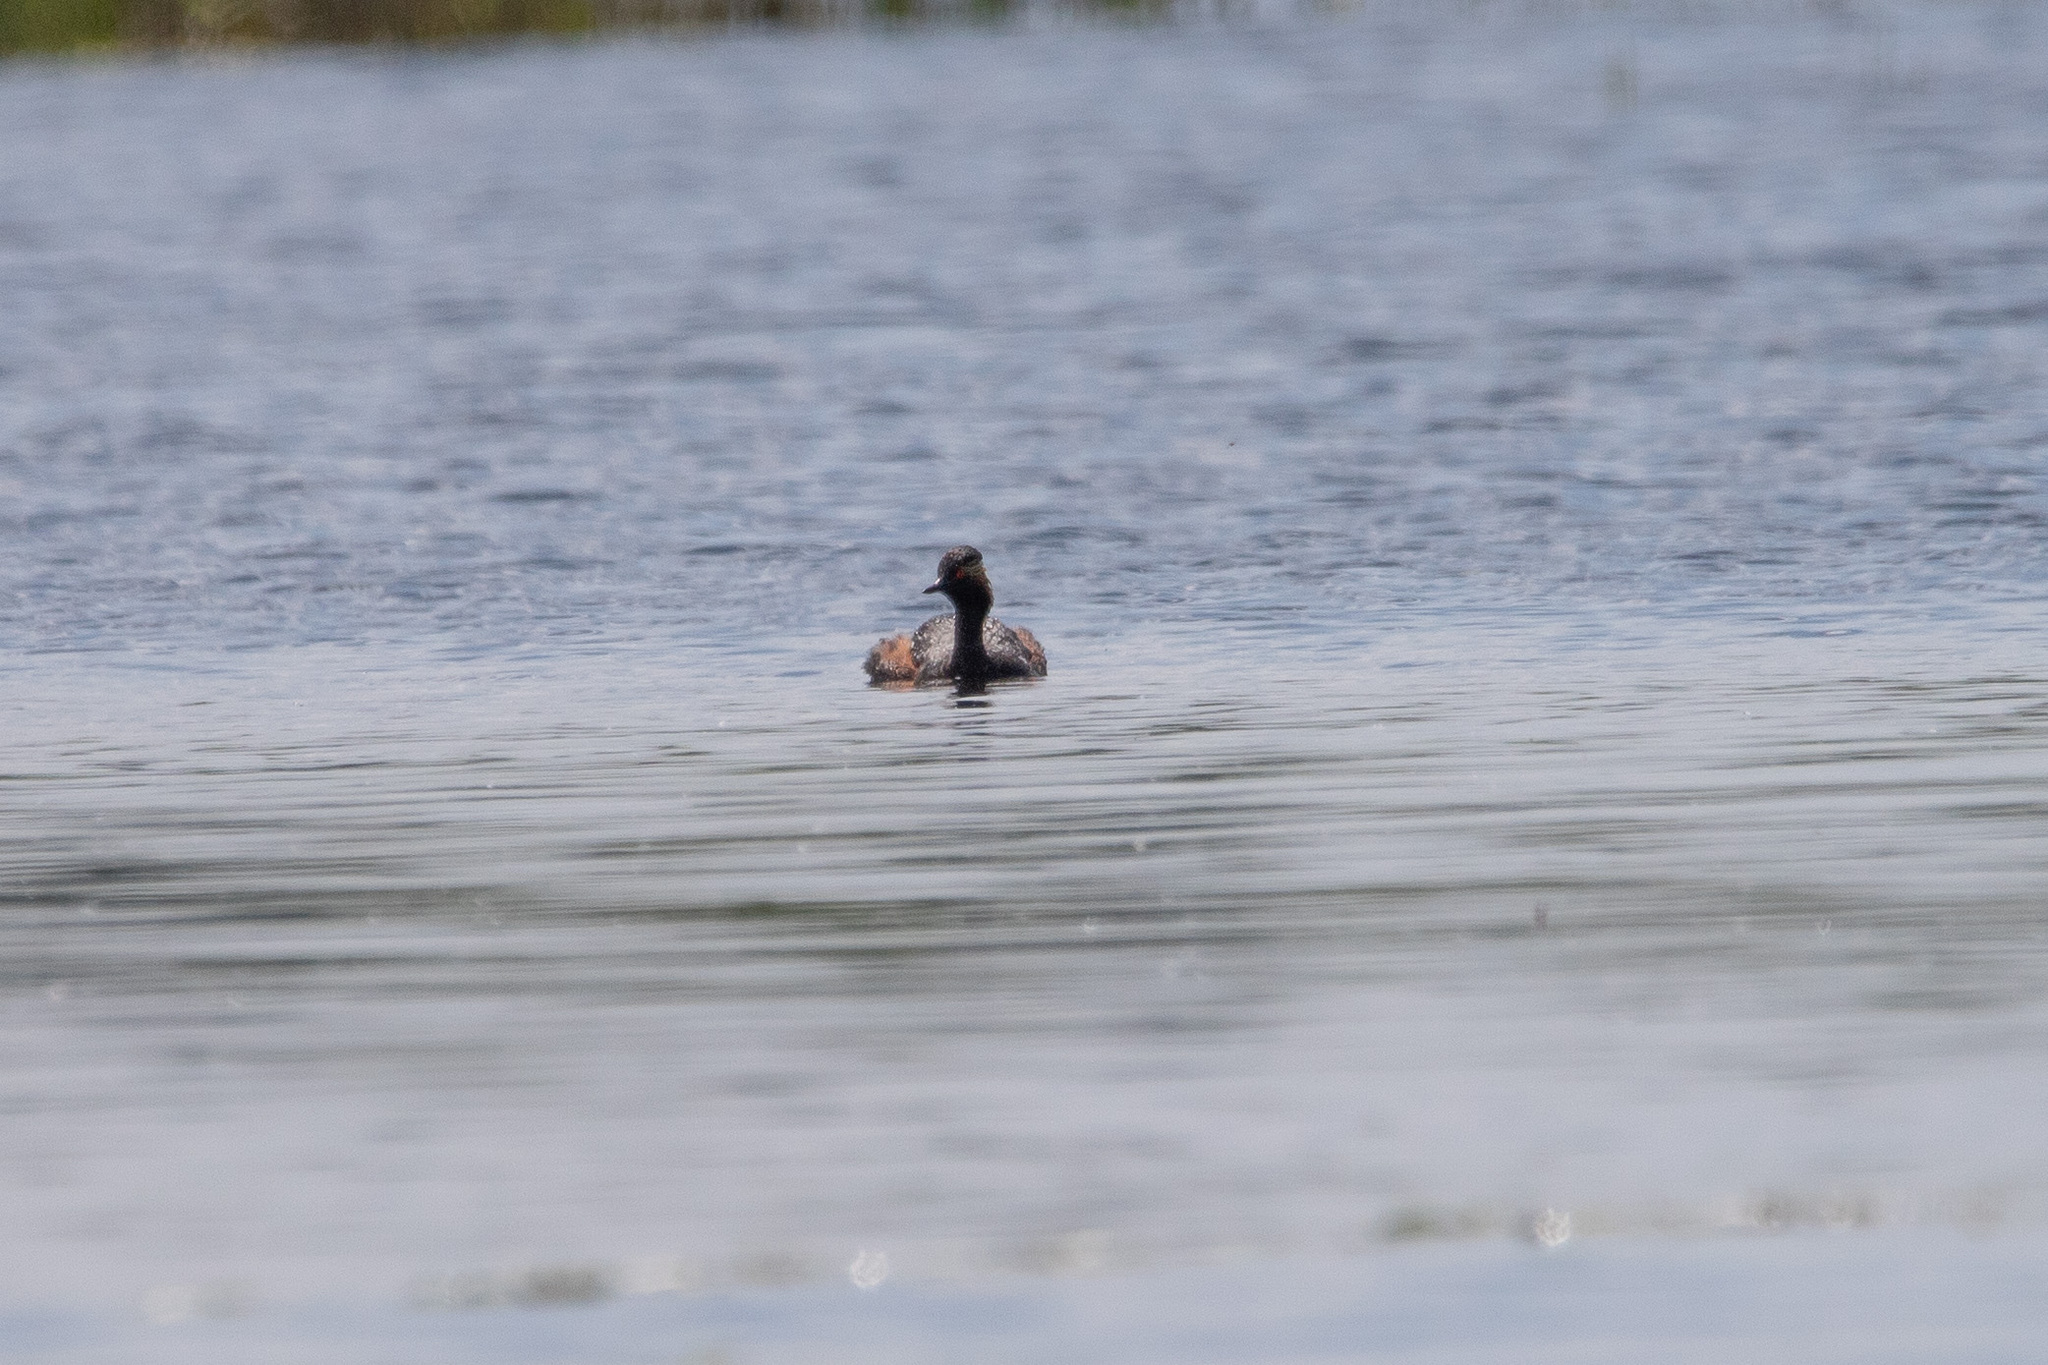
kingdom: Animalia
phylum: Chordata
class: Aves
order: Podicipediformes
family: Podicipedidae
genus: Podiceps
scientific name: Podiceps nigricollis
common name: Black-necked grebe
